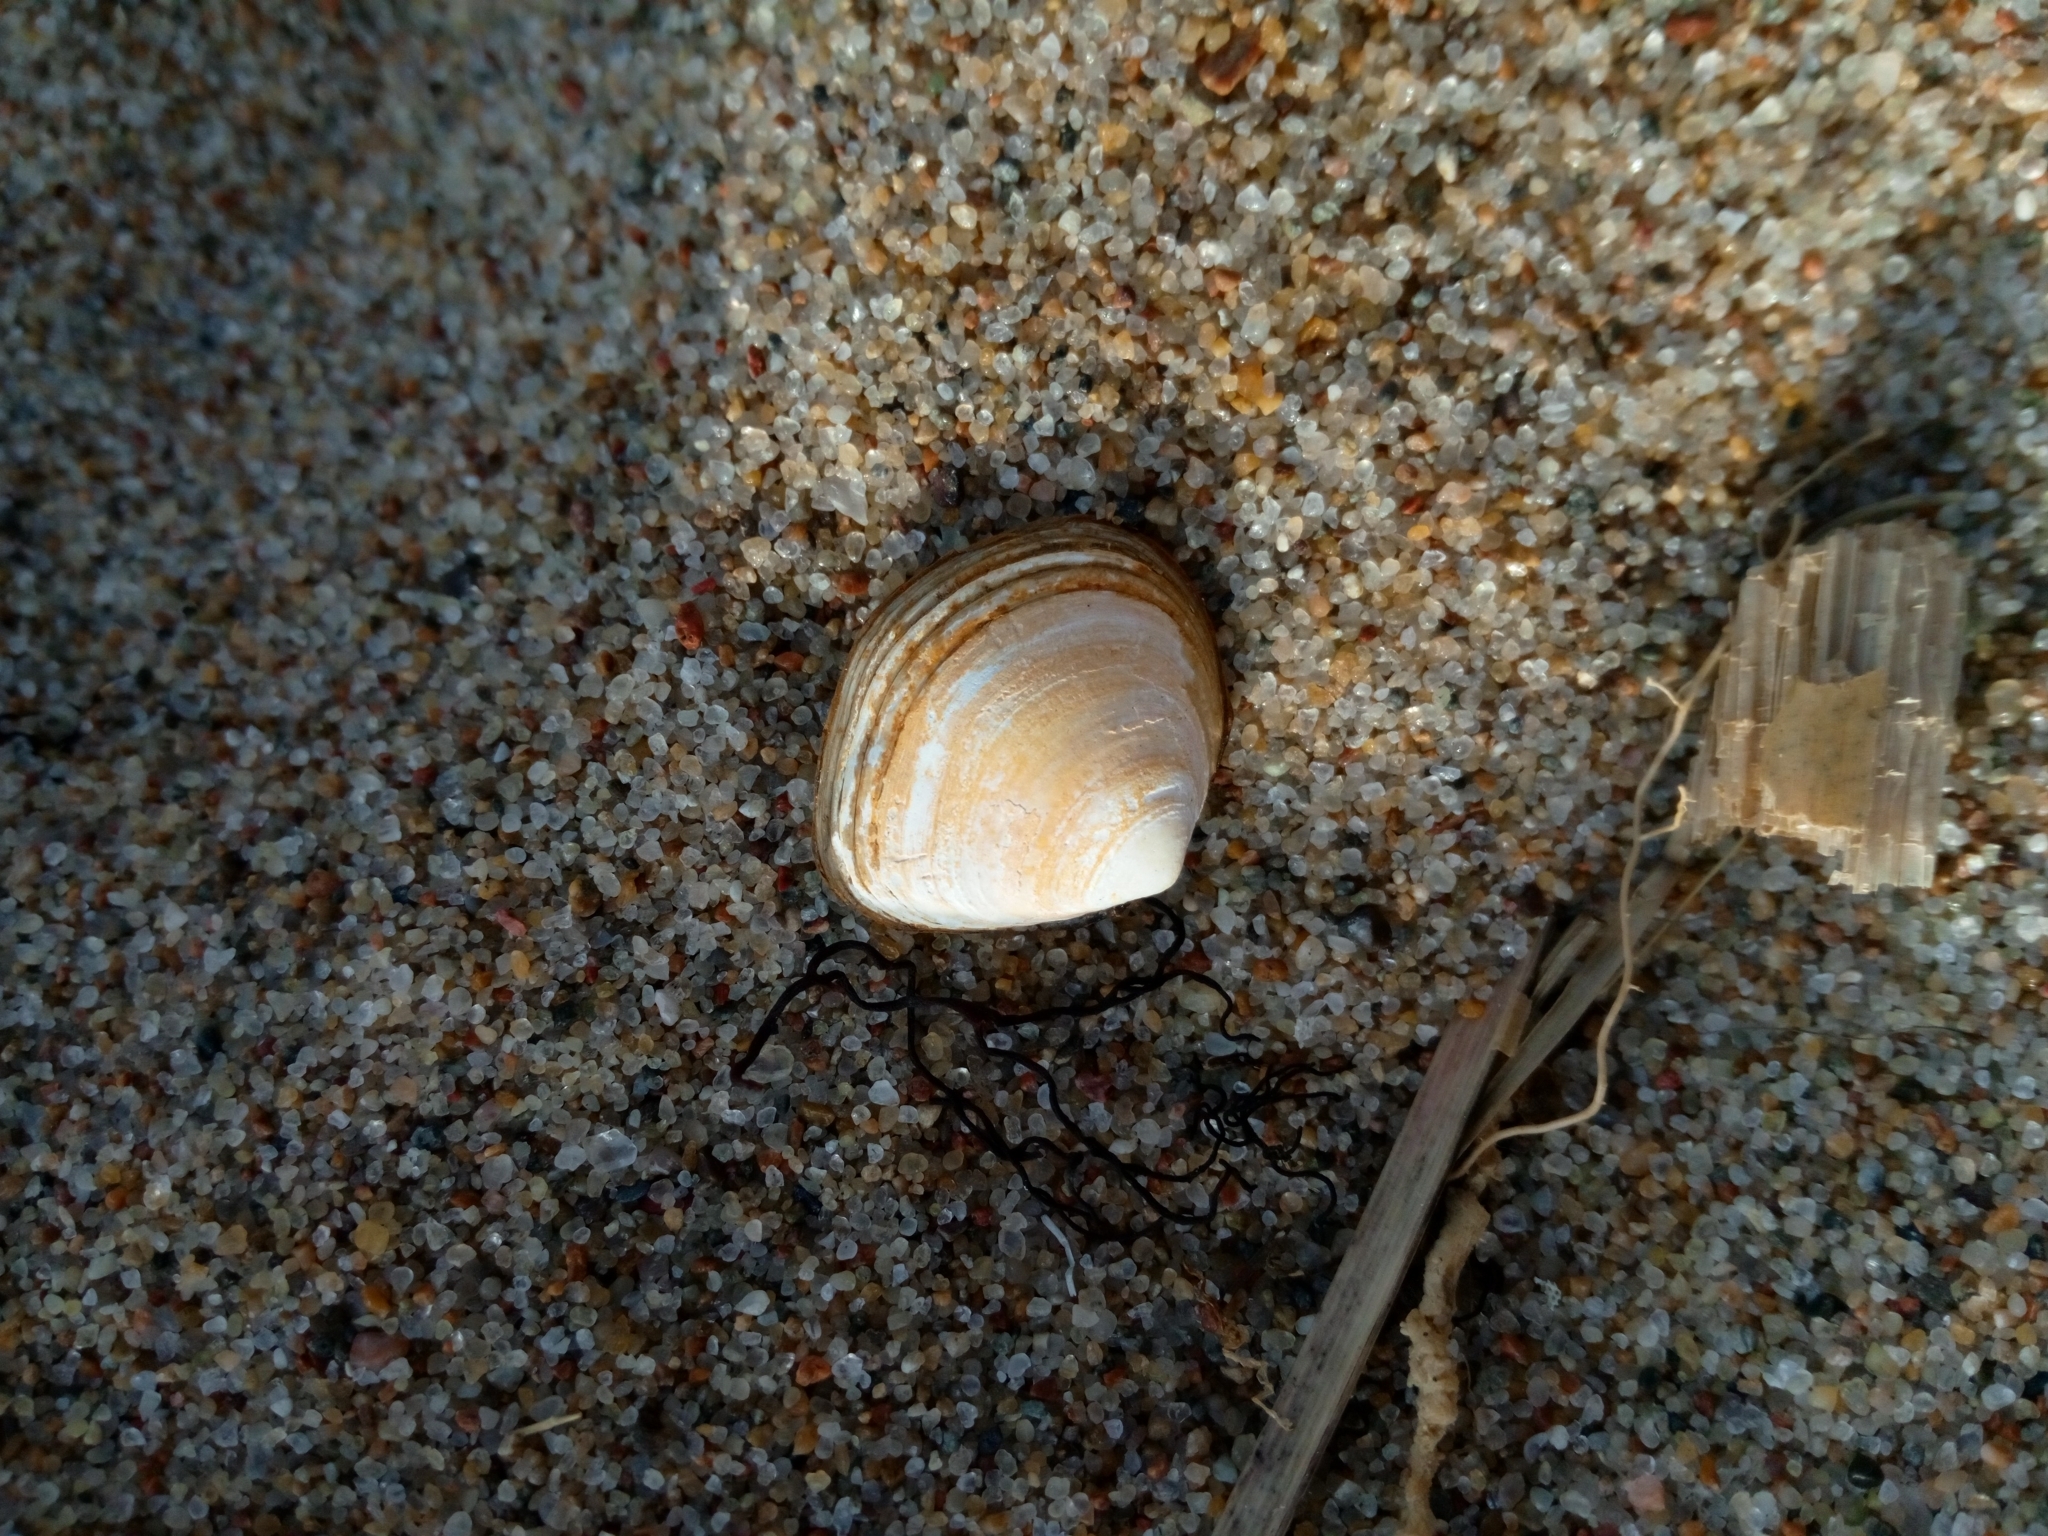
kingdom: Animalia
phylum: Mollusca
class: Bivalvia
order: Cardiida
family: Tellinidae
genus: Macoma
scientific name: Macoma balthica
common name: Baltic tellin
